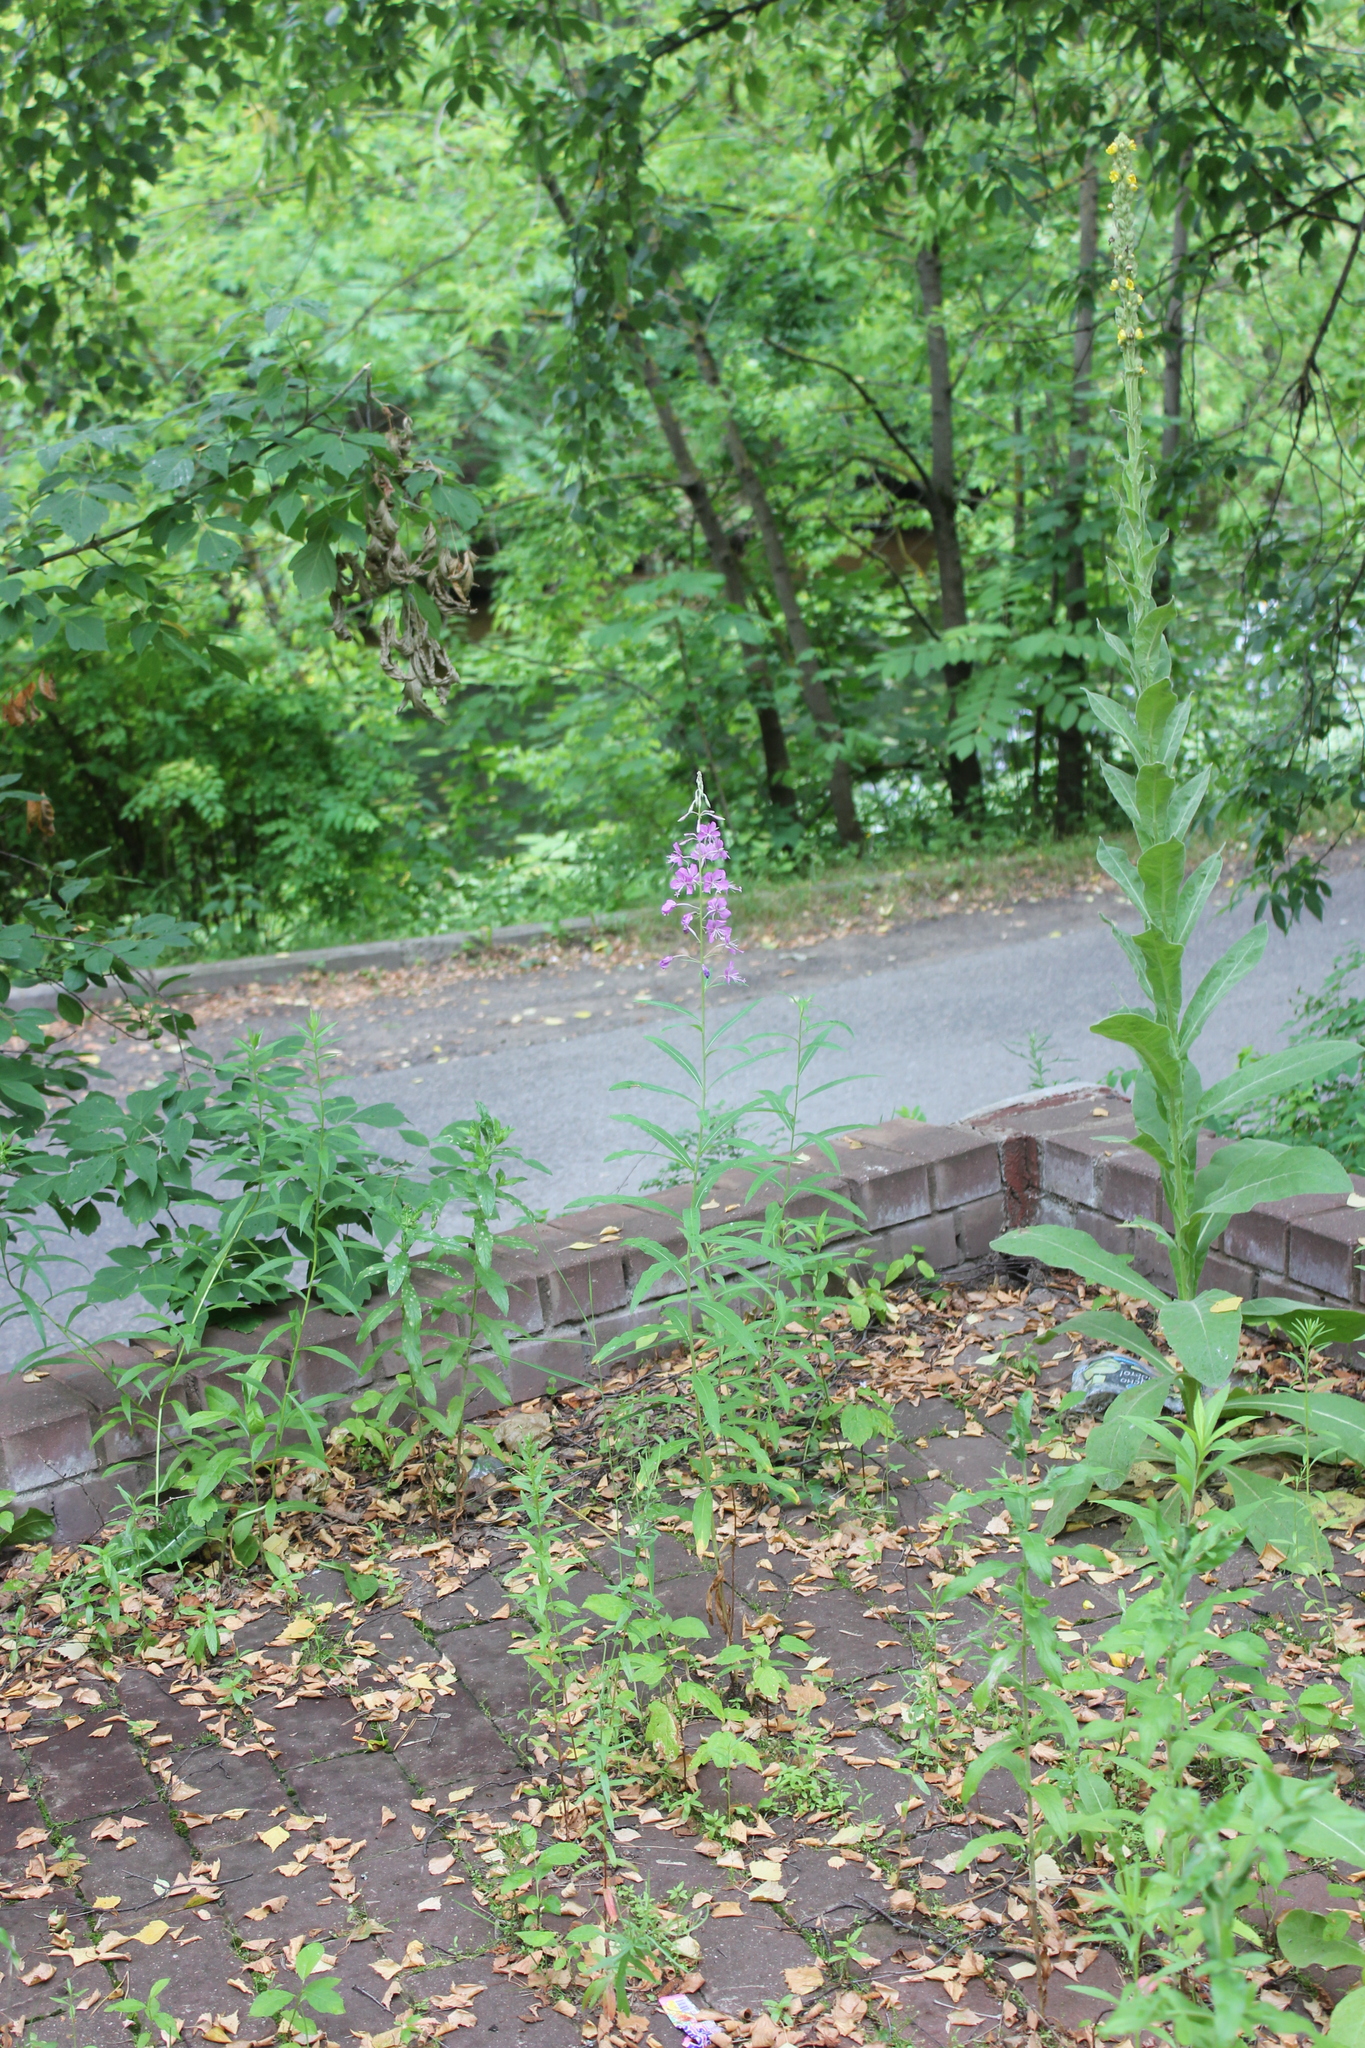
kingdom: Plantae
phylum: Tracheophyta
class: Magnoliopsida
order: Lamiales
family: Scrophulariaceae
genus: Verbascum
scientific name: Verbascum thapsus
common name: Common mullein
